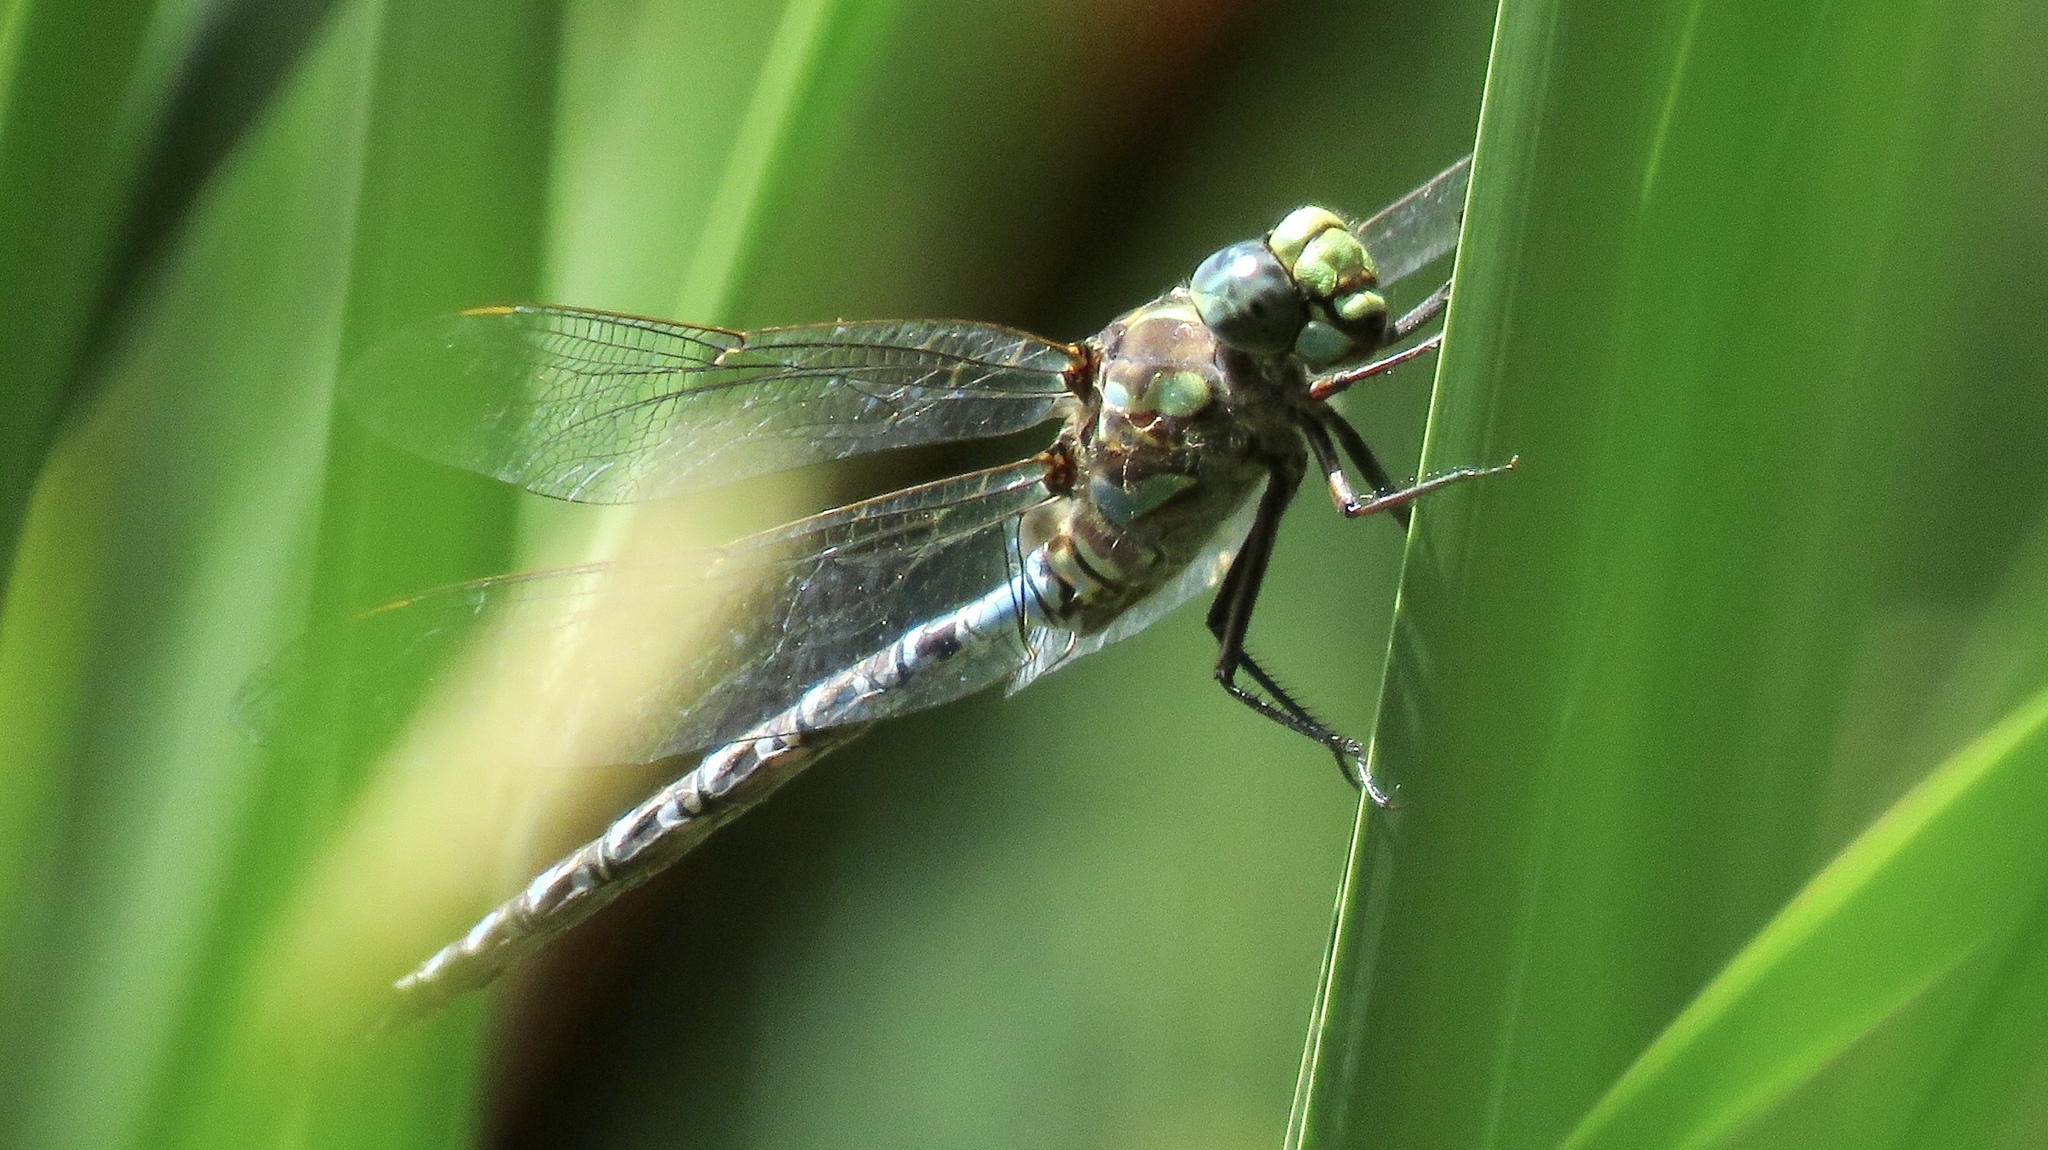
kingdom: Animalia
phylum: Arthropoda
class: Insecta
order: Odonata
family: Aeshnidae
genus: Aeshna
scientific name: Aeshna canadensis
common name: Canada darner
